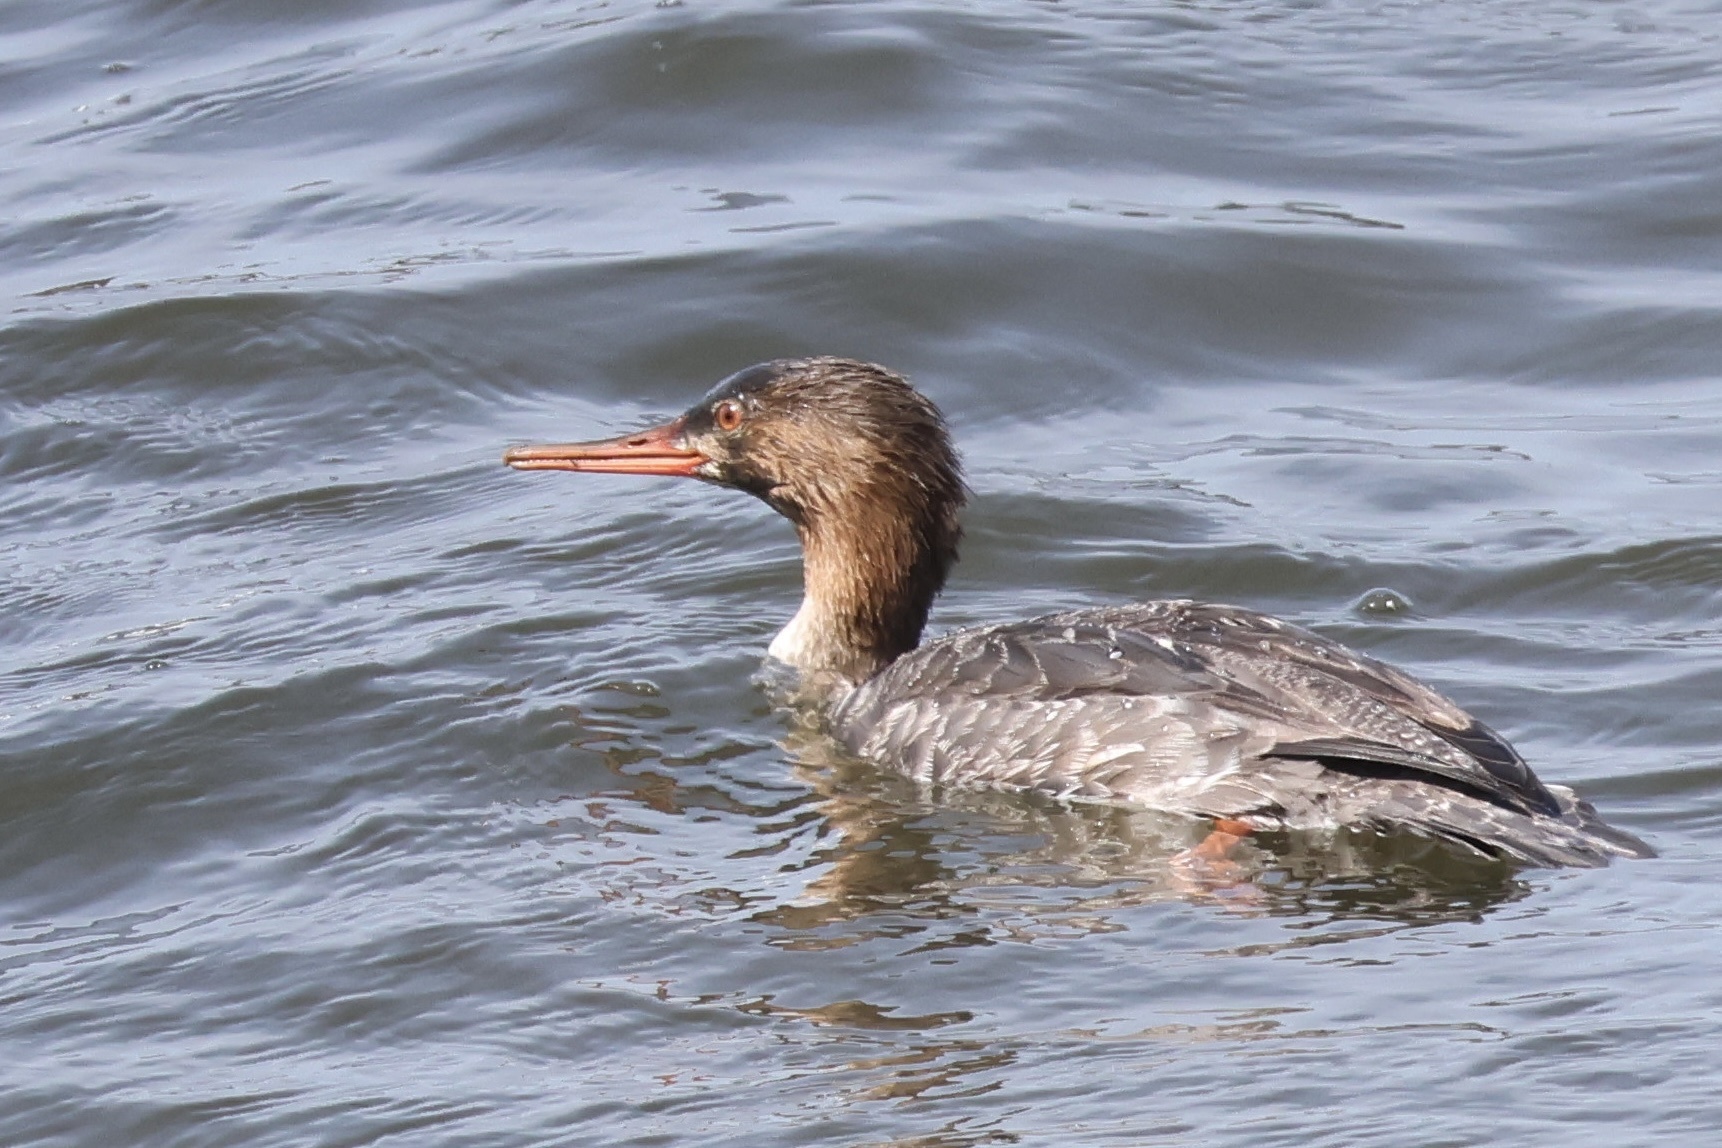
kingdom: Animalia
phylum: Chordata
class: Aves
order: Anseriformes
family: Anatidae
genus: Mergus
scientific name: Mergus serrator
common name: Red-breasted merganser
